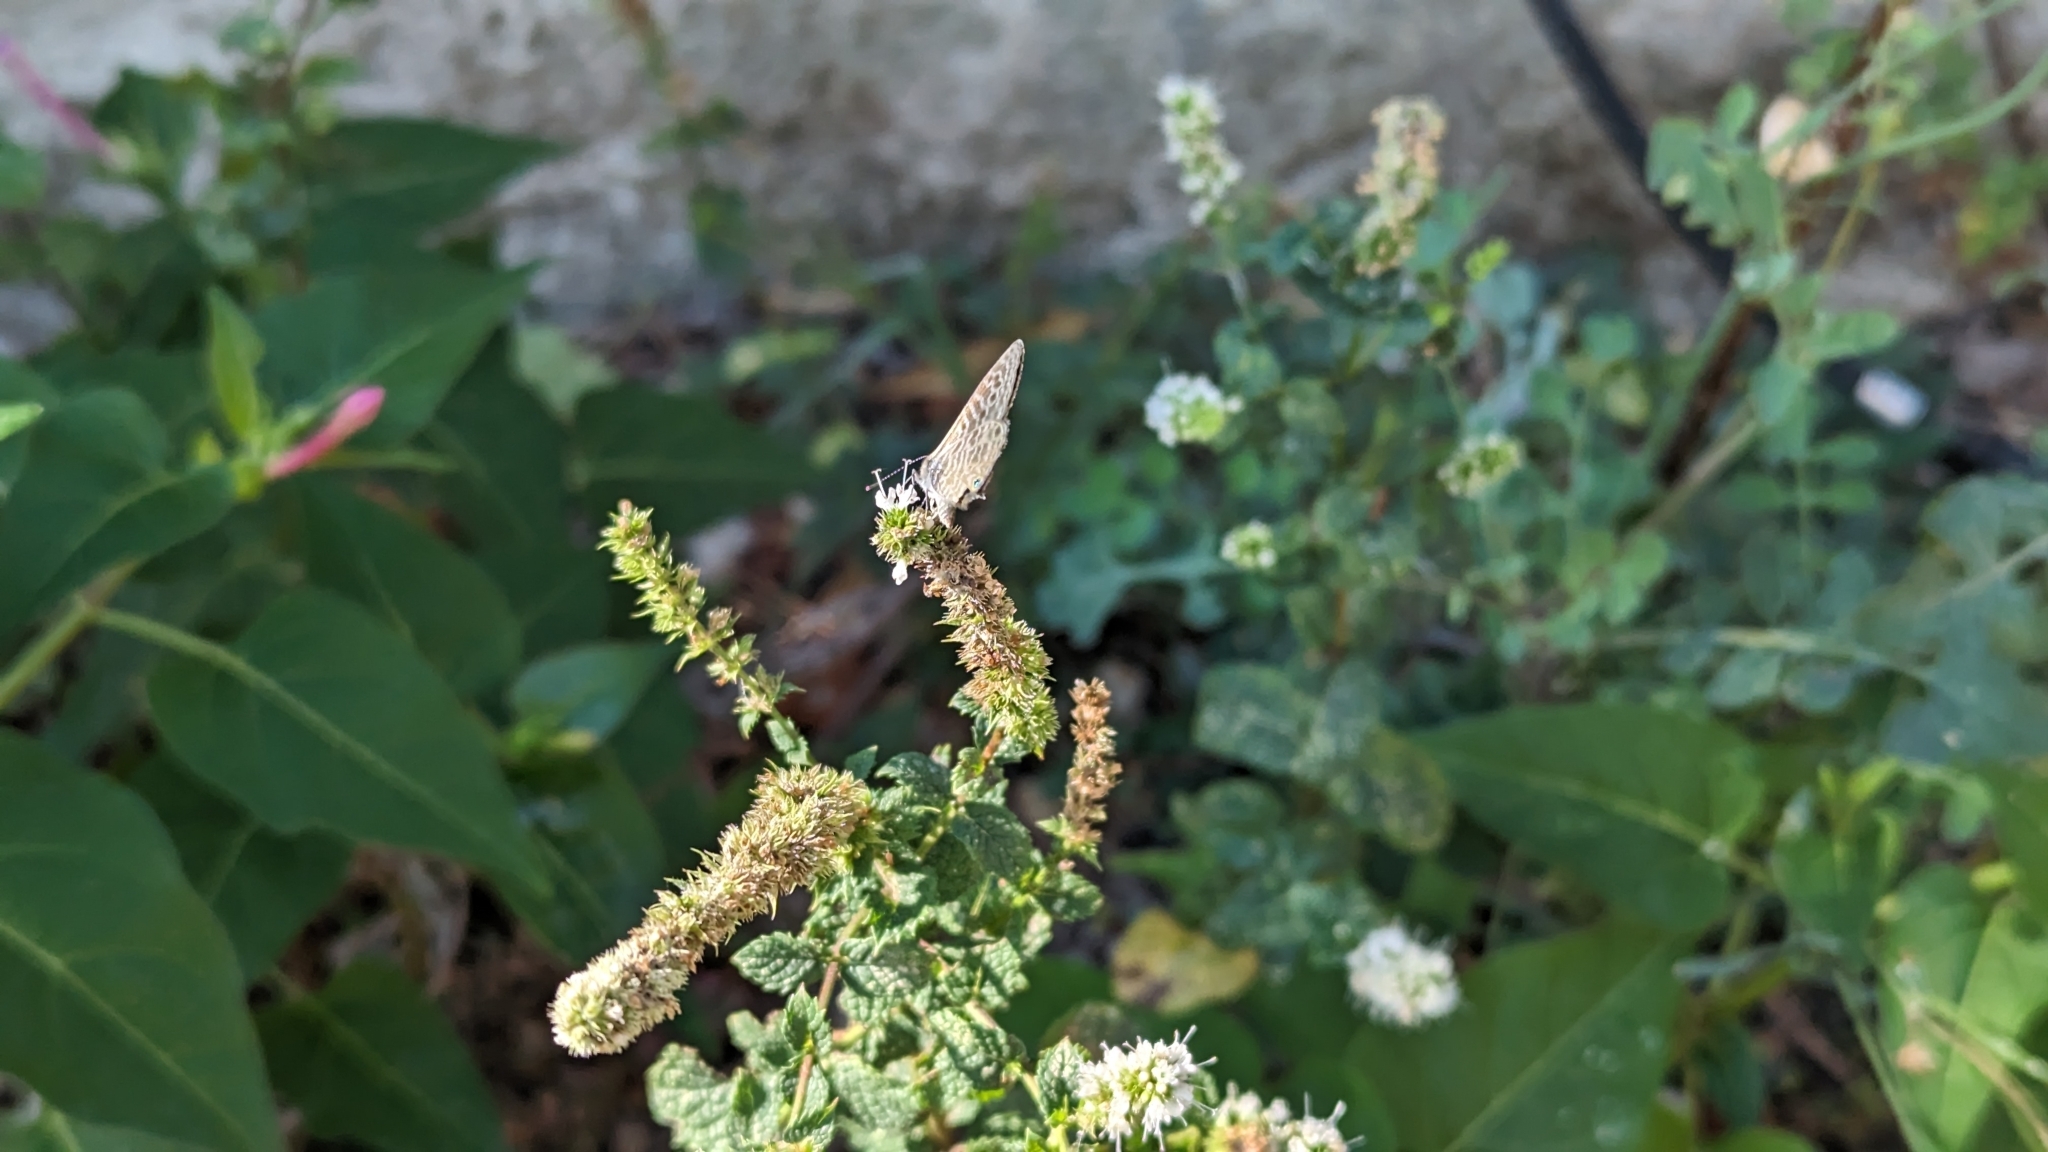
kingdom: Animalia
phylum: Arthropoda
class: Insecta
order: Lepidoptera
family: Lycaenidae
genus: Leptotes
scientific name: Leptotes pirithous
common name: Lang's short-tailed blue
